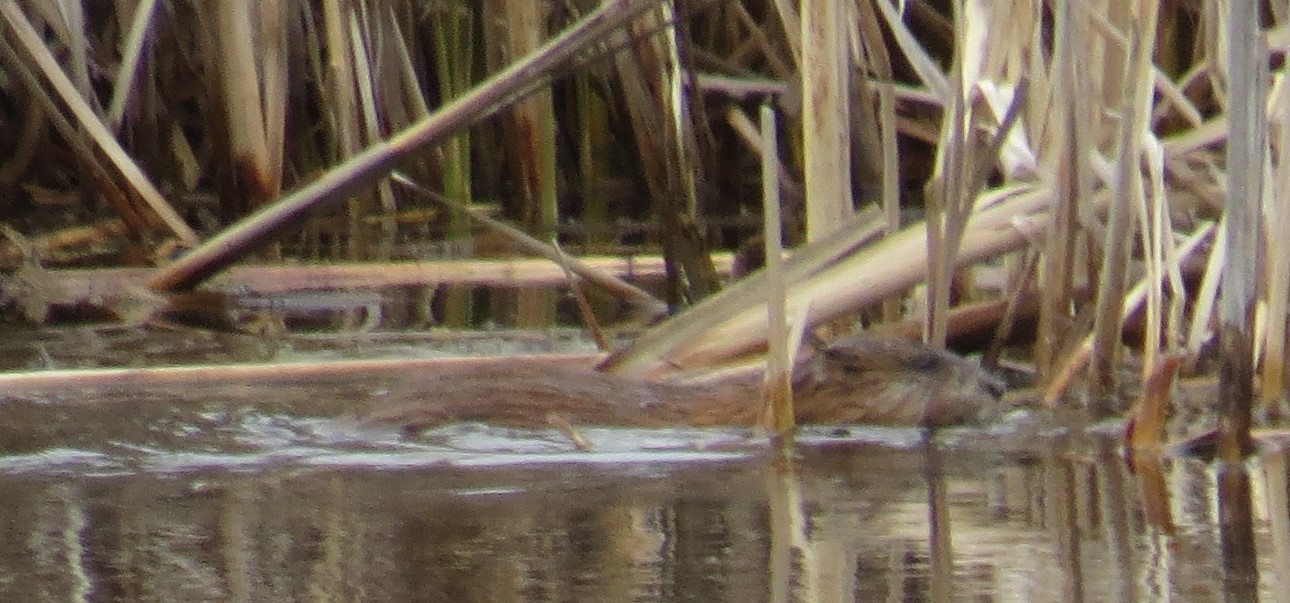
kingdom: Animalia
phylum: Chordata
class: Mammalia
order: Rodentia
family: Cricetidae
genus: Ondatra
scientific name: Ondatra zibethicus
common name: Muskrat
